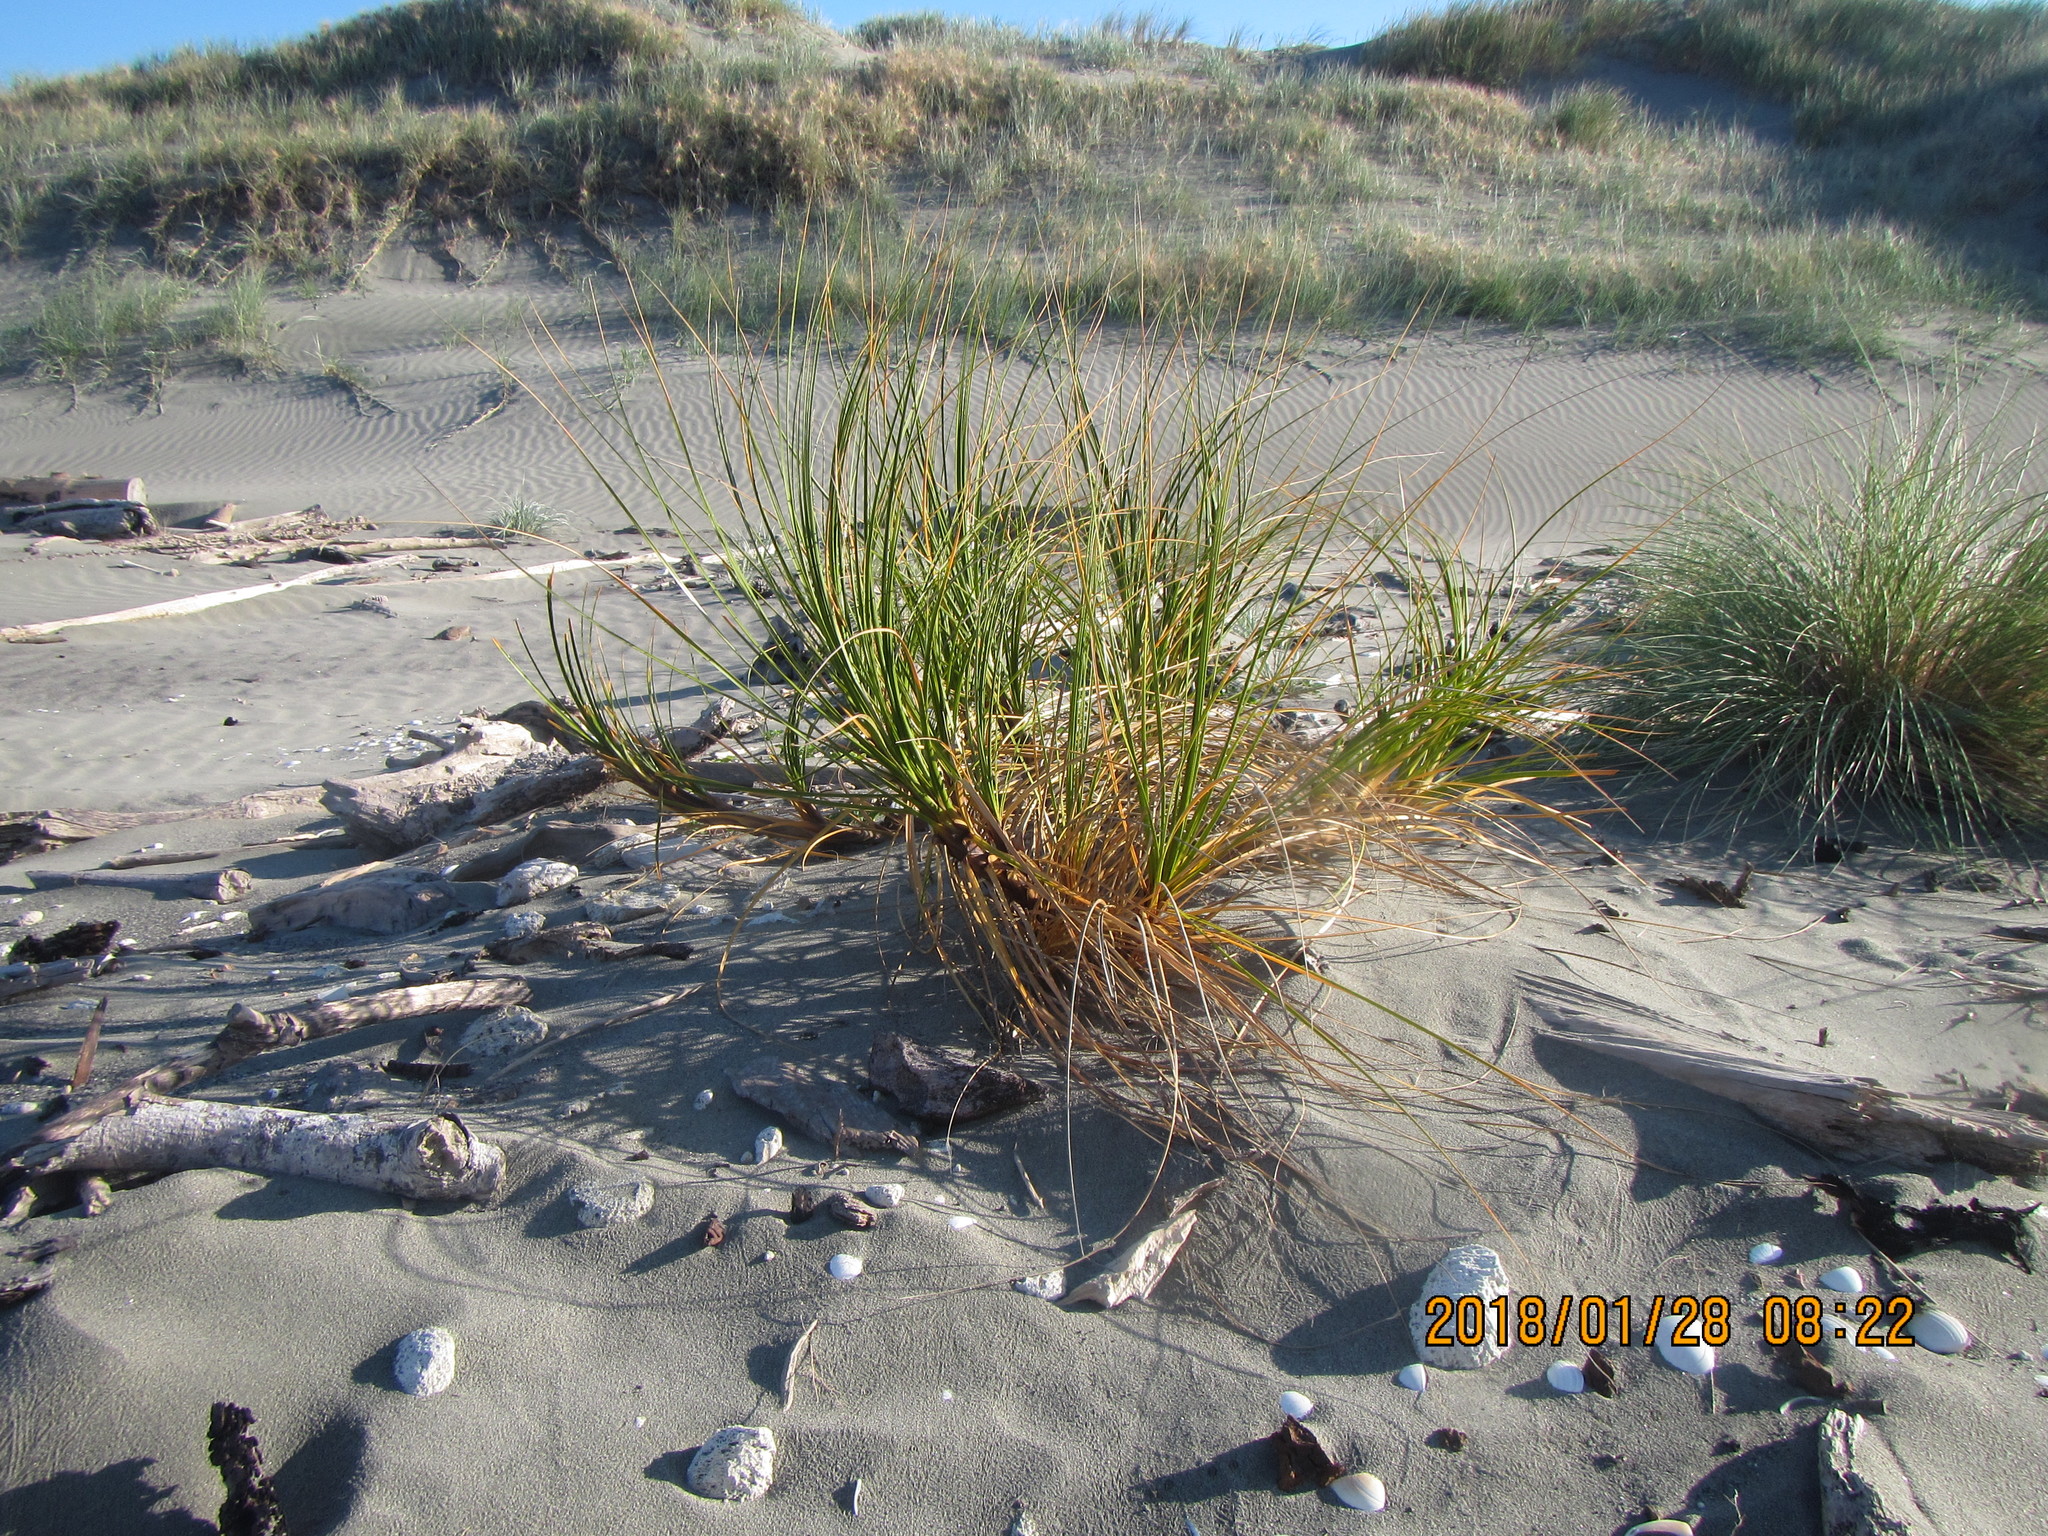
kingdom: Plantae
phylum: Tracheophyta
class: Liliopsida
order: Poales
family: Cyperaceae
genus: Ficinia
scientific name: Ficinia spiralis
